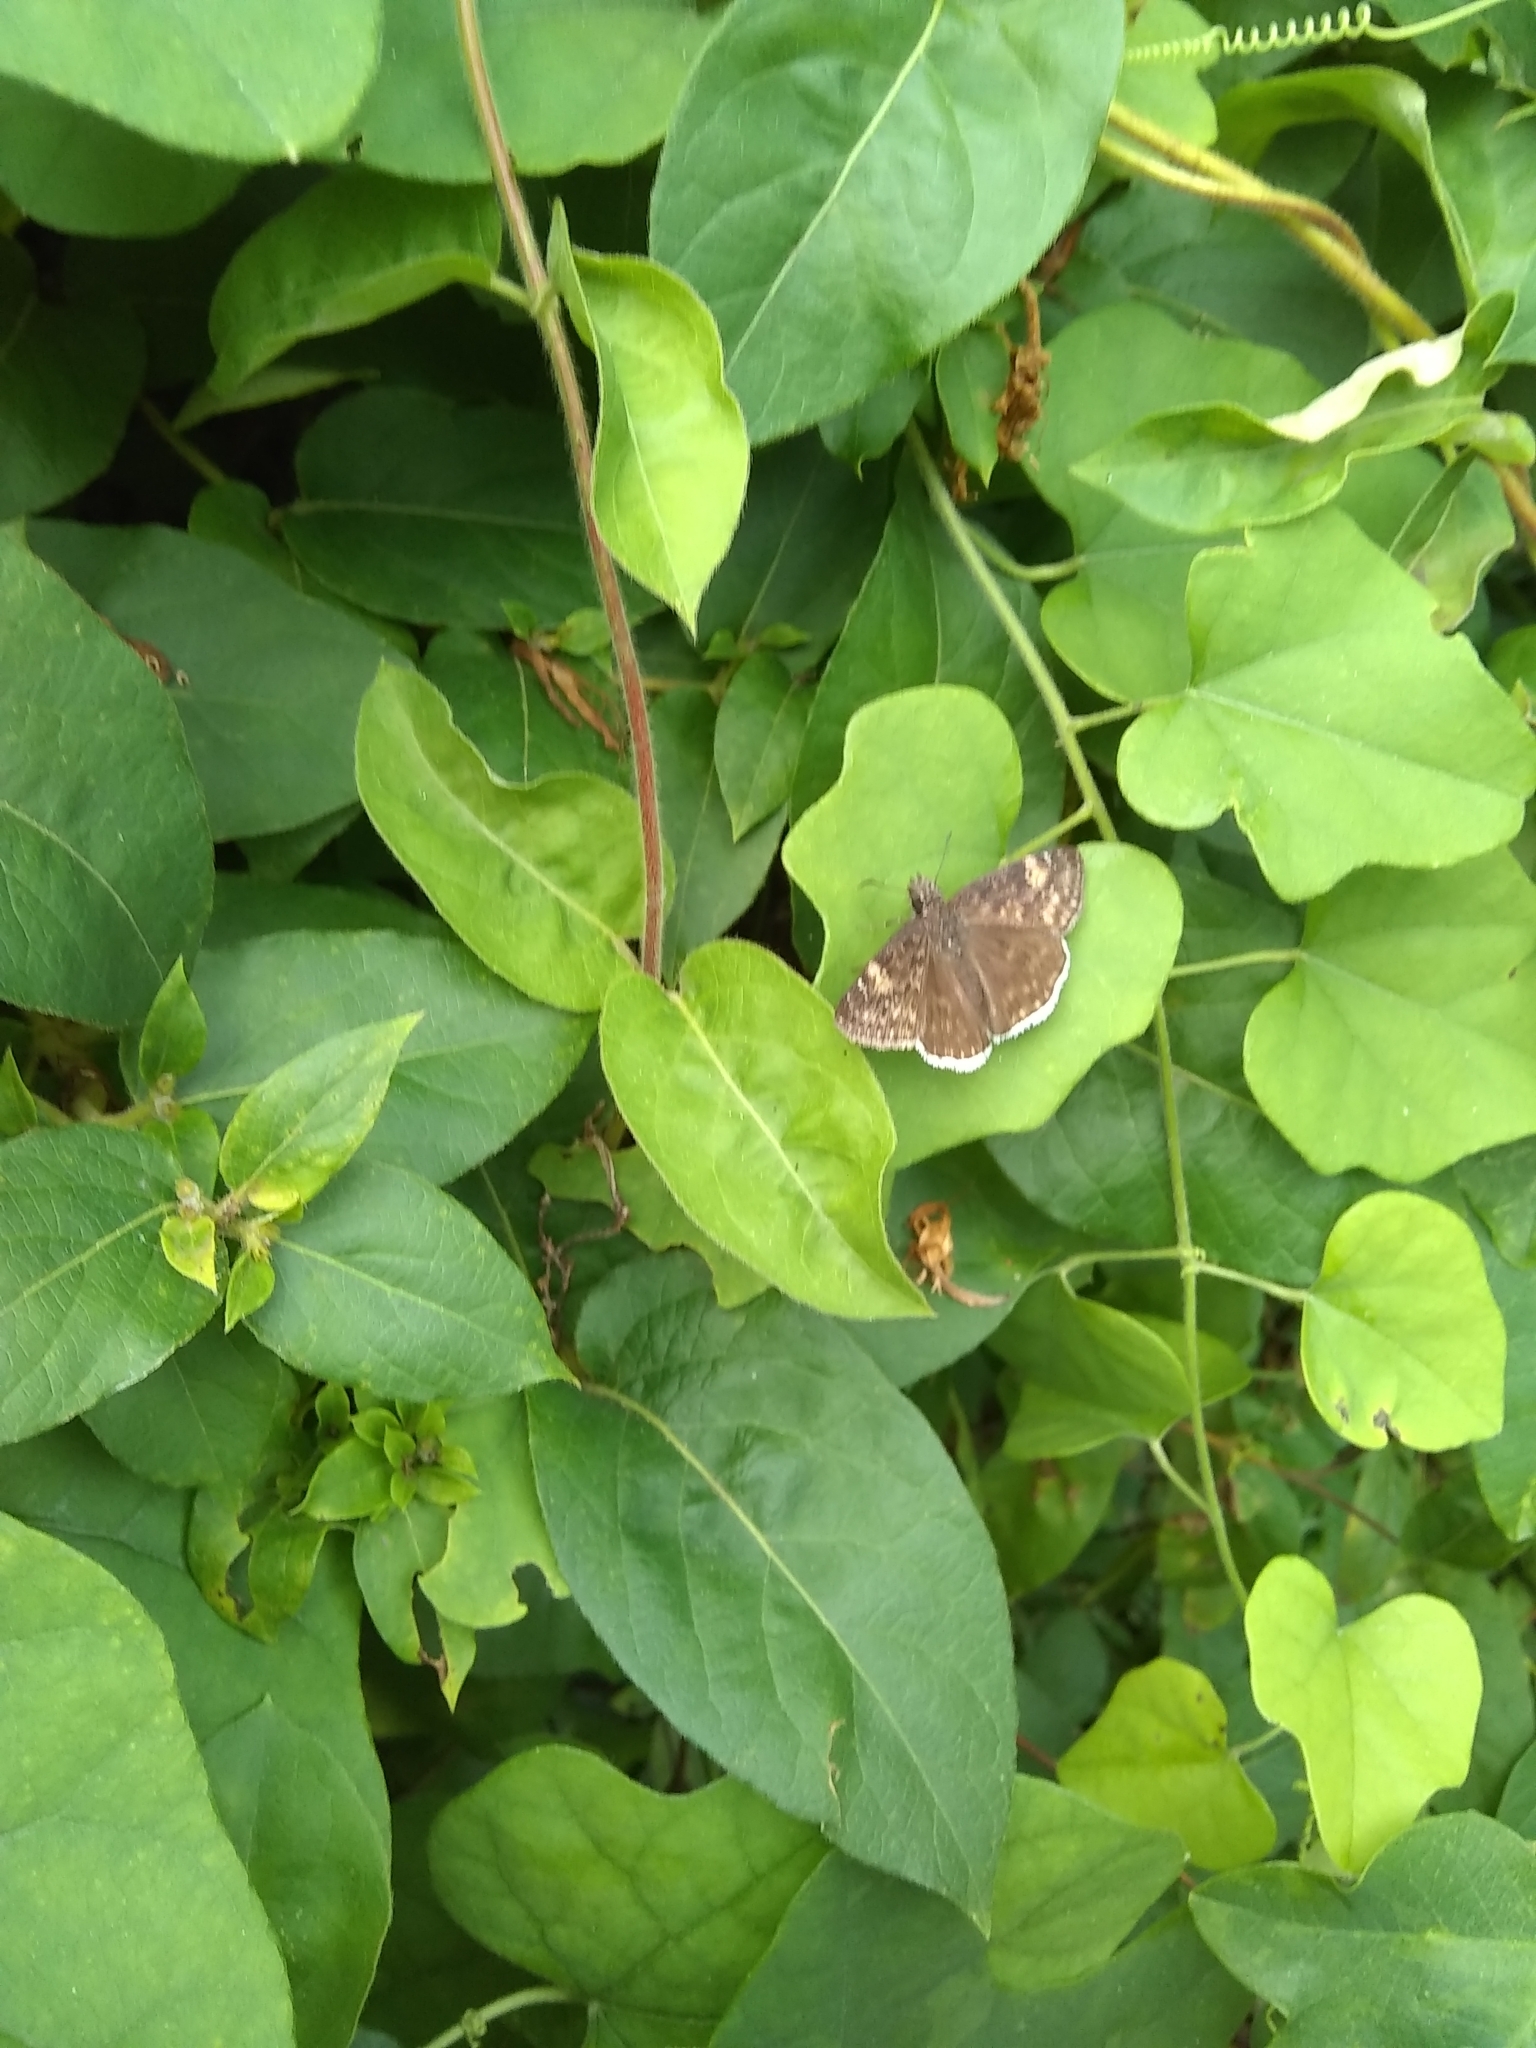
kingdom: Animalia
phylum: Arthropoda
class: Insecta
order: Lepidoptera
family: Hesperiidae
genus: Erynnis
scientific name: Erynnis funeralis
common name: Funereal duskywing
